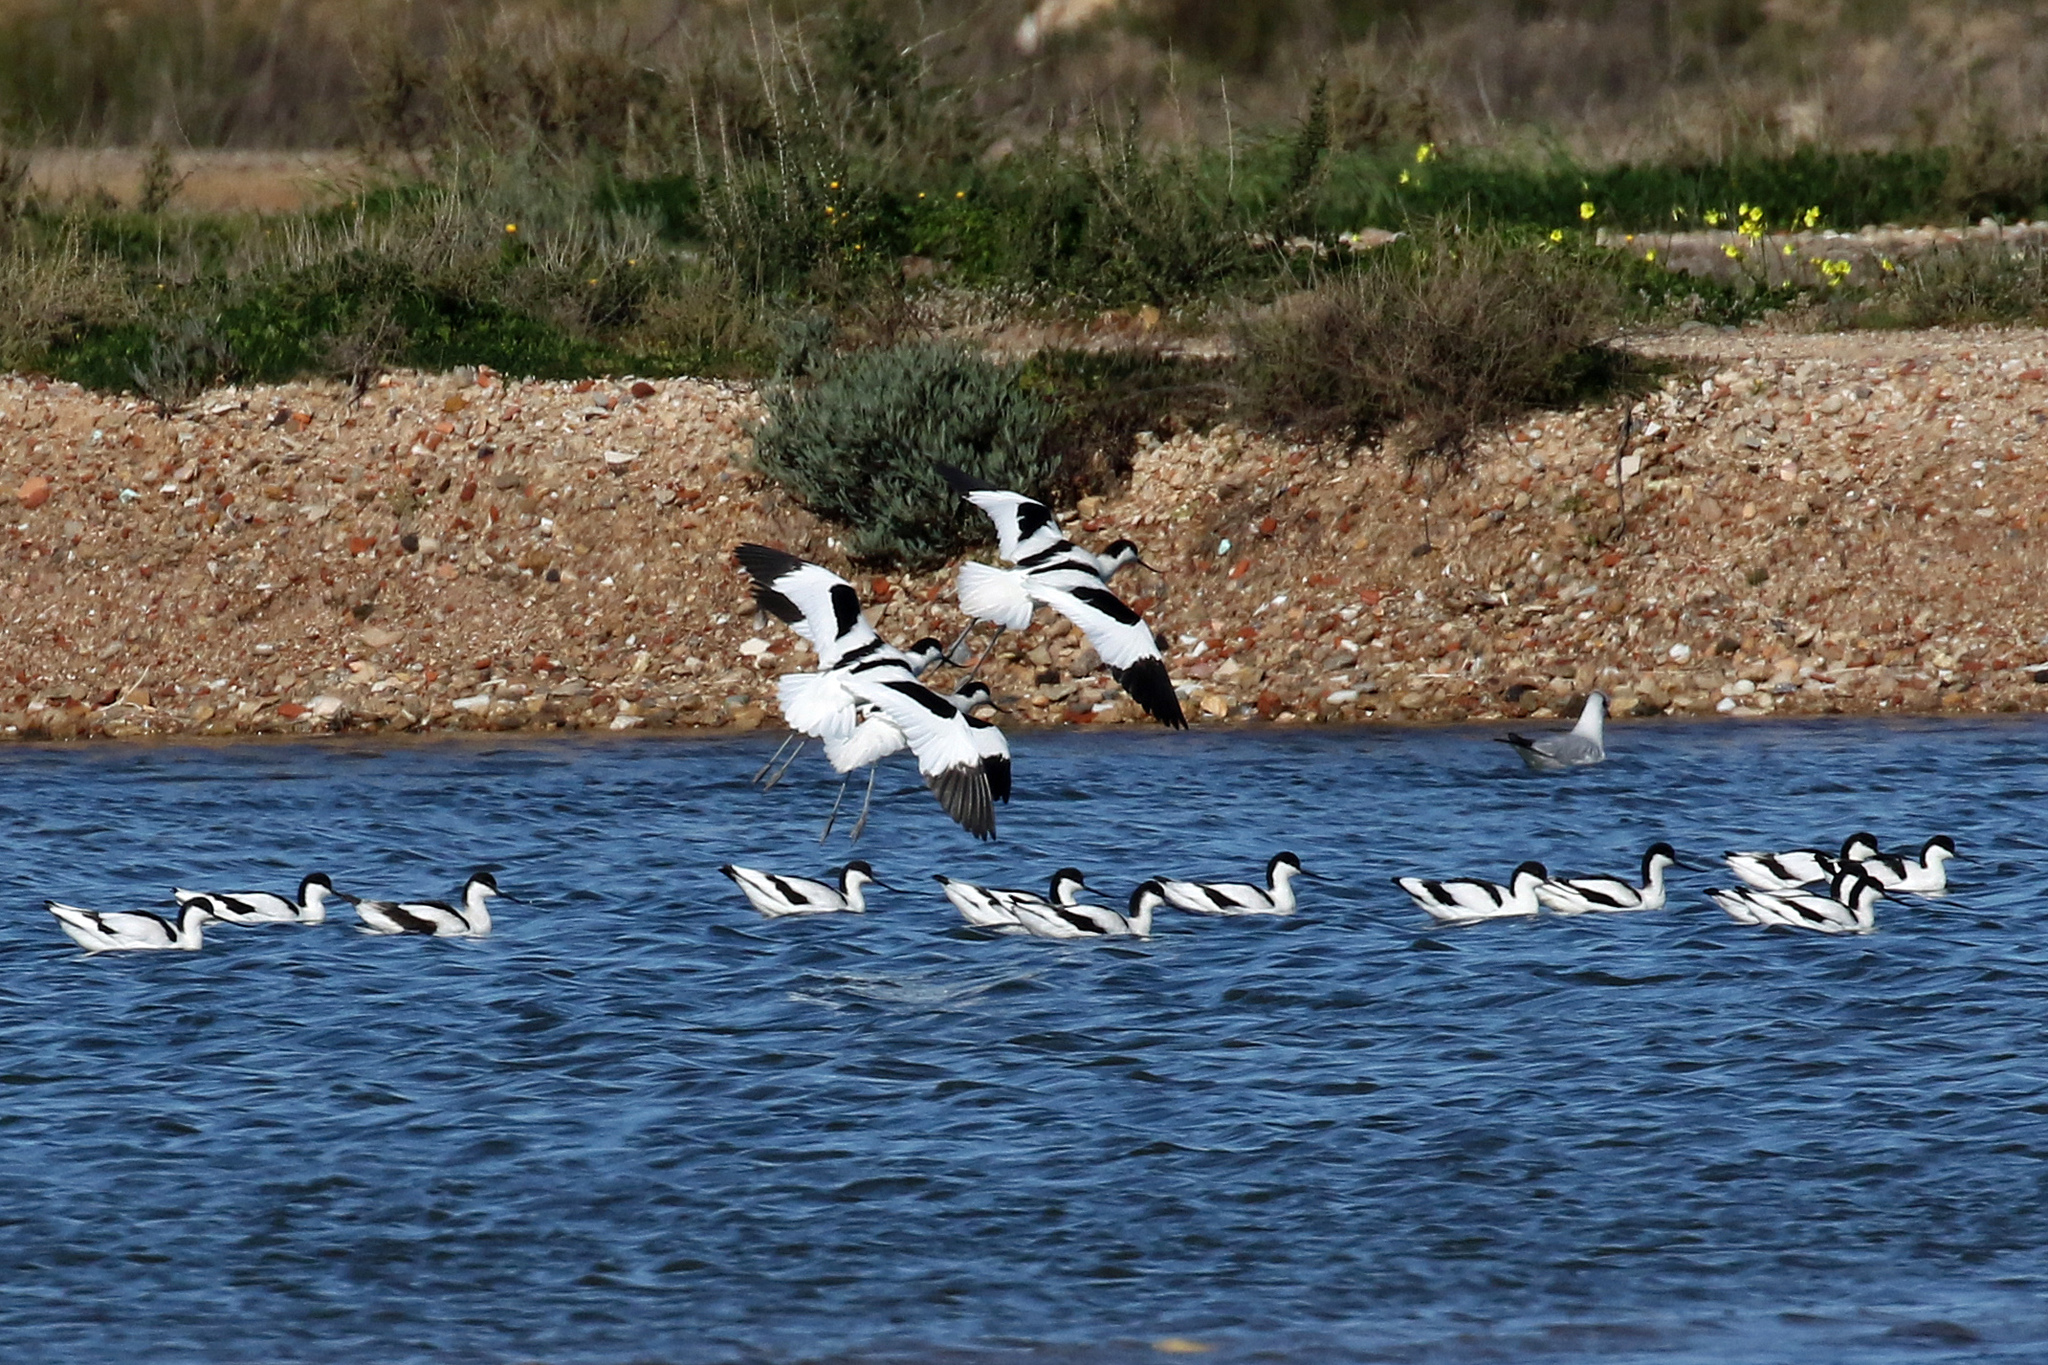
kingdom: Animalia
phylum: Chordata
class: Aves
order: Charadriiformes
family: Recurvirostridae
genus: Recurvirostra
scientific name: Recurvirostra avosetta
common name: Pied avocet
